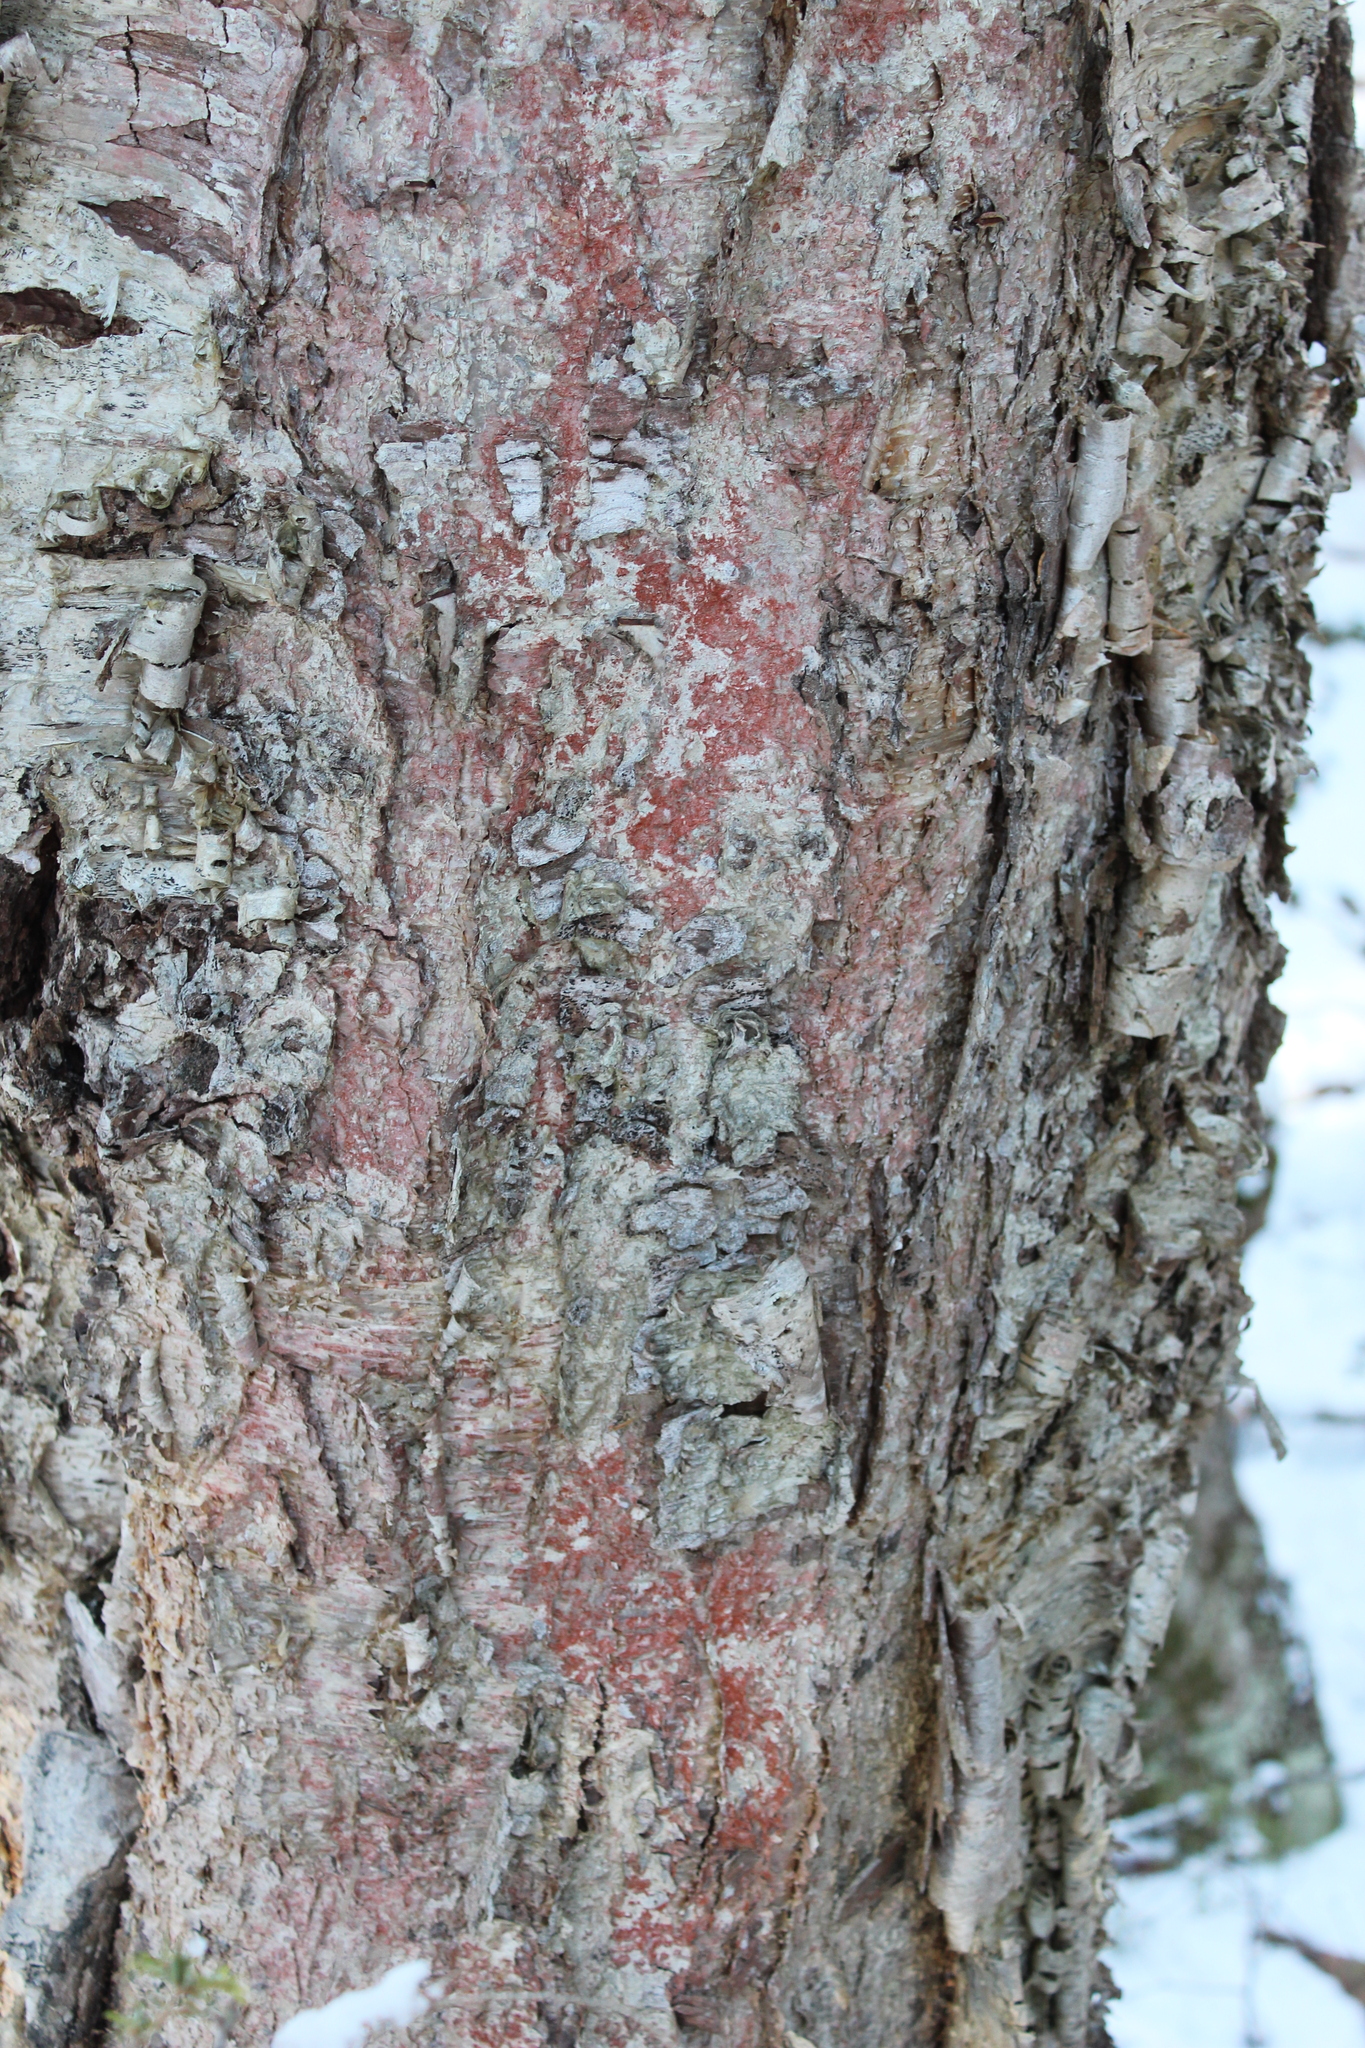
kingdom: Plantae
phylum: Tracheophyta
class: Magnoliopsida
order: Fagales
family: Betulaceae
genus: Betula
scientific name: Betula alleghaniensis
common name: Yellow birch
